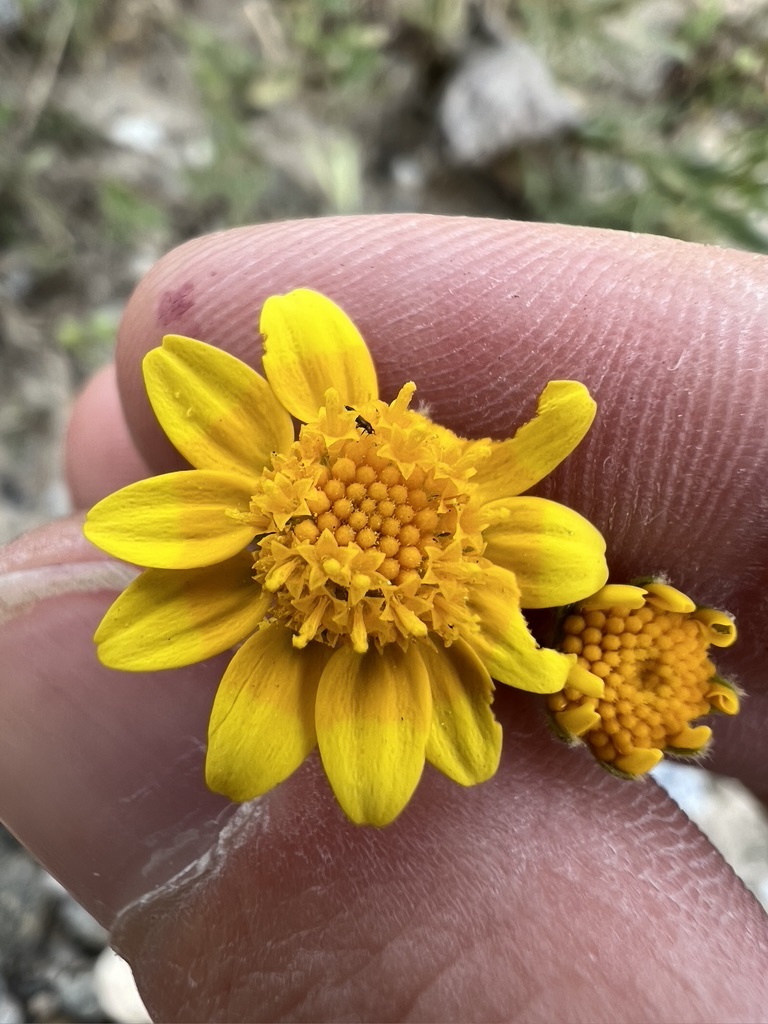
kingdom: Plantae
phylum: Tracheophyta
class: Magnoliopsida
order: Asterales
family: Asteraceae
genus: Lasthenia
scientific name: Lasthenia gracilis
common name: Common goldfields
